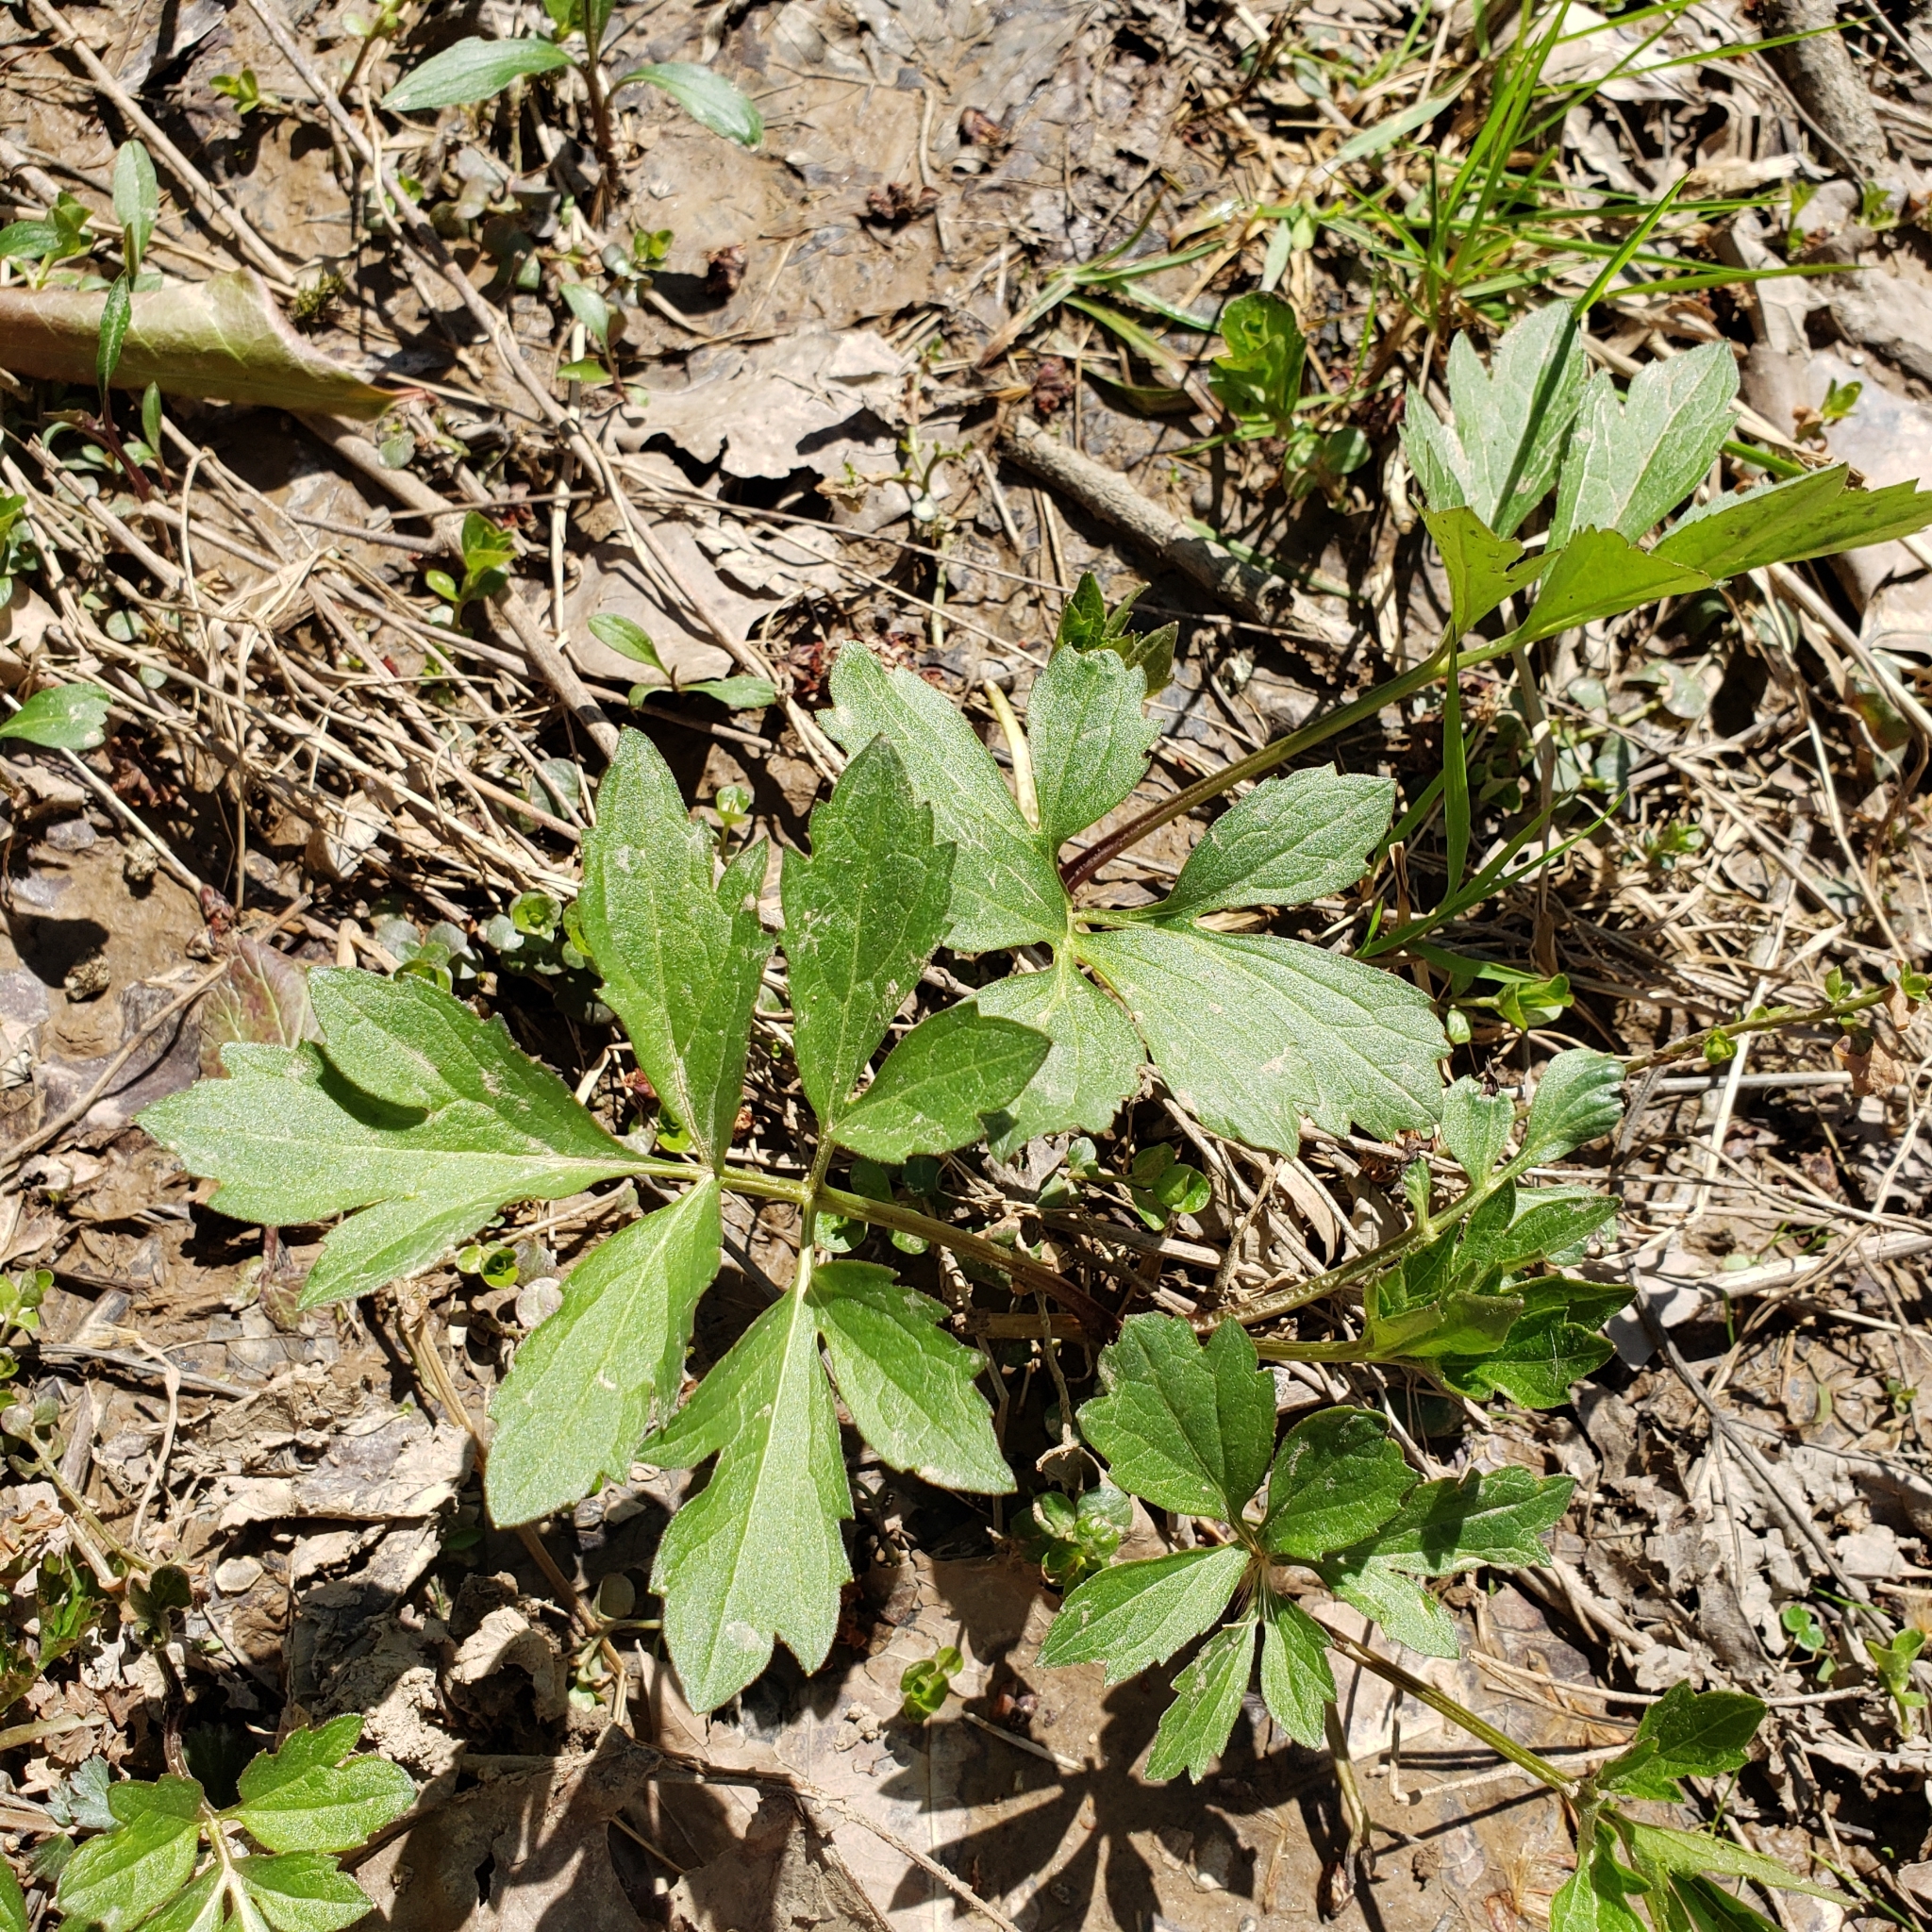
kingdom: Plantae
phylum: Tracheophyta
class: Magnoliopsida
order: Asterales
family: Asteraceae
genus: Rudbeckia
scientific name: Rudbeckia laciniata
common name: Coneflower
